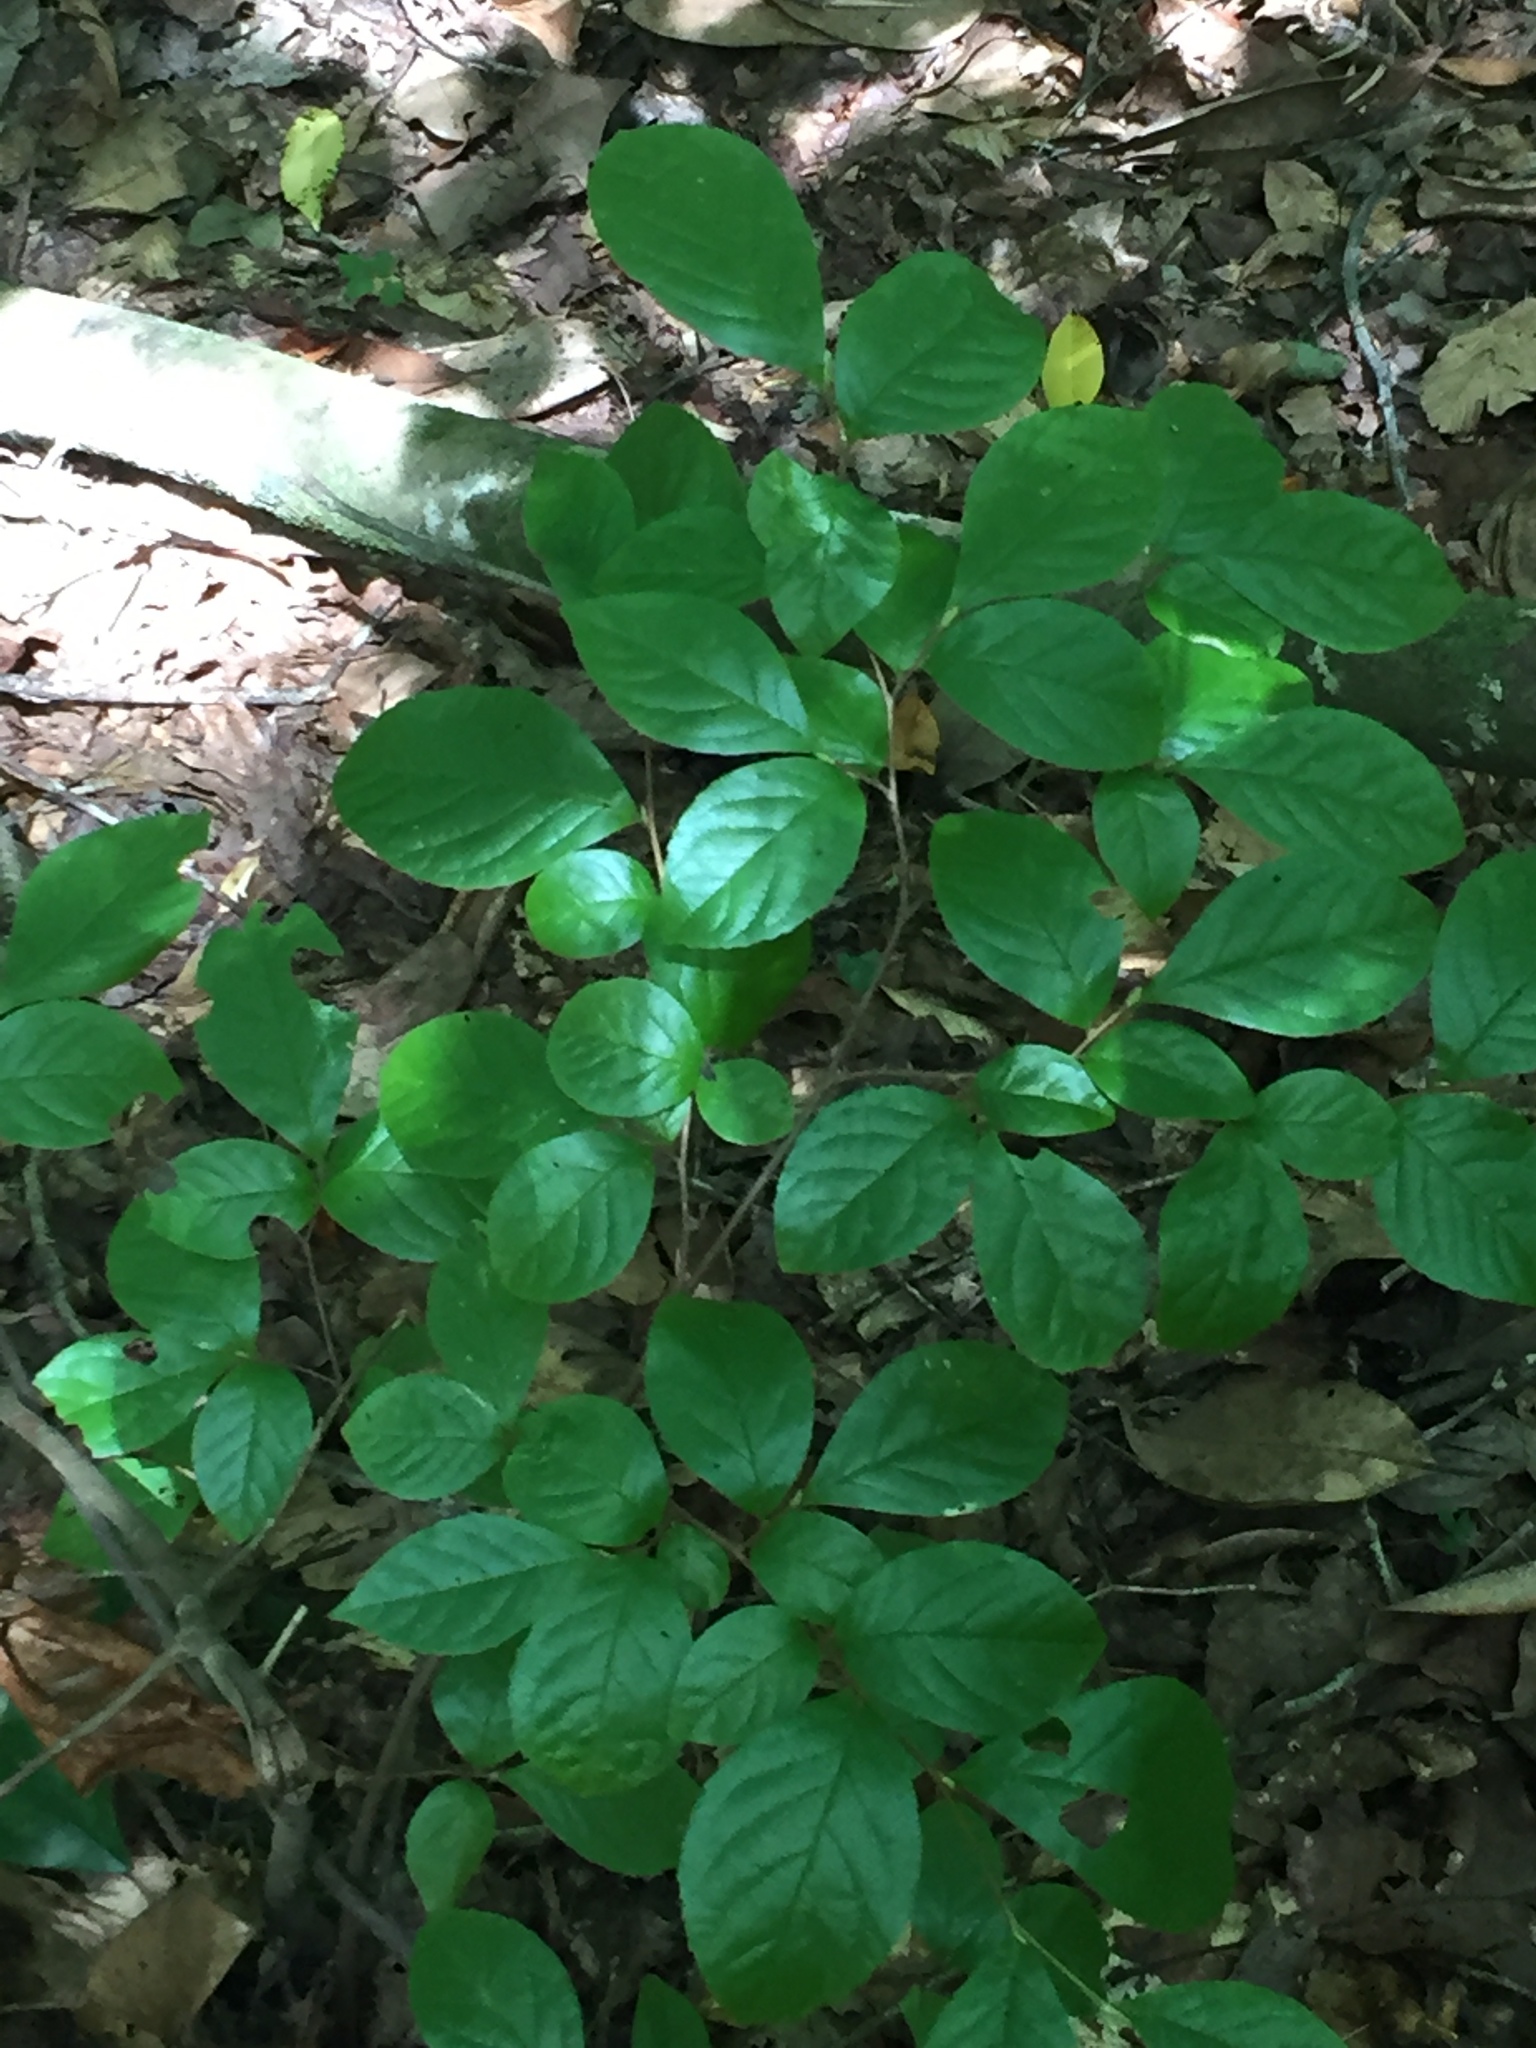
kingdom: Plantae
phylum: Tracheophyta
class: Magnoliopsida
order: Ericales
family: Theaceae
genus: Stewartia
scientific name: Stewartia malacodendron
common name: Virginia stewartia
